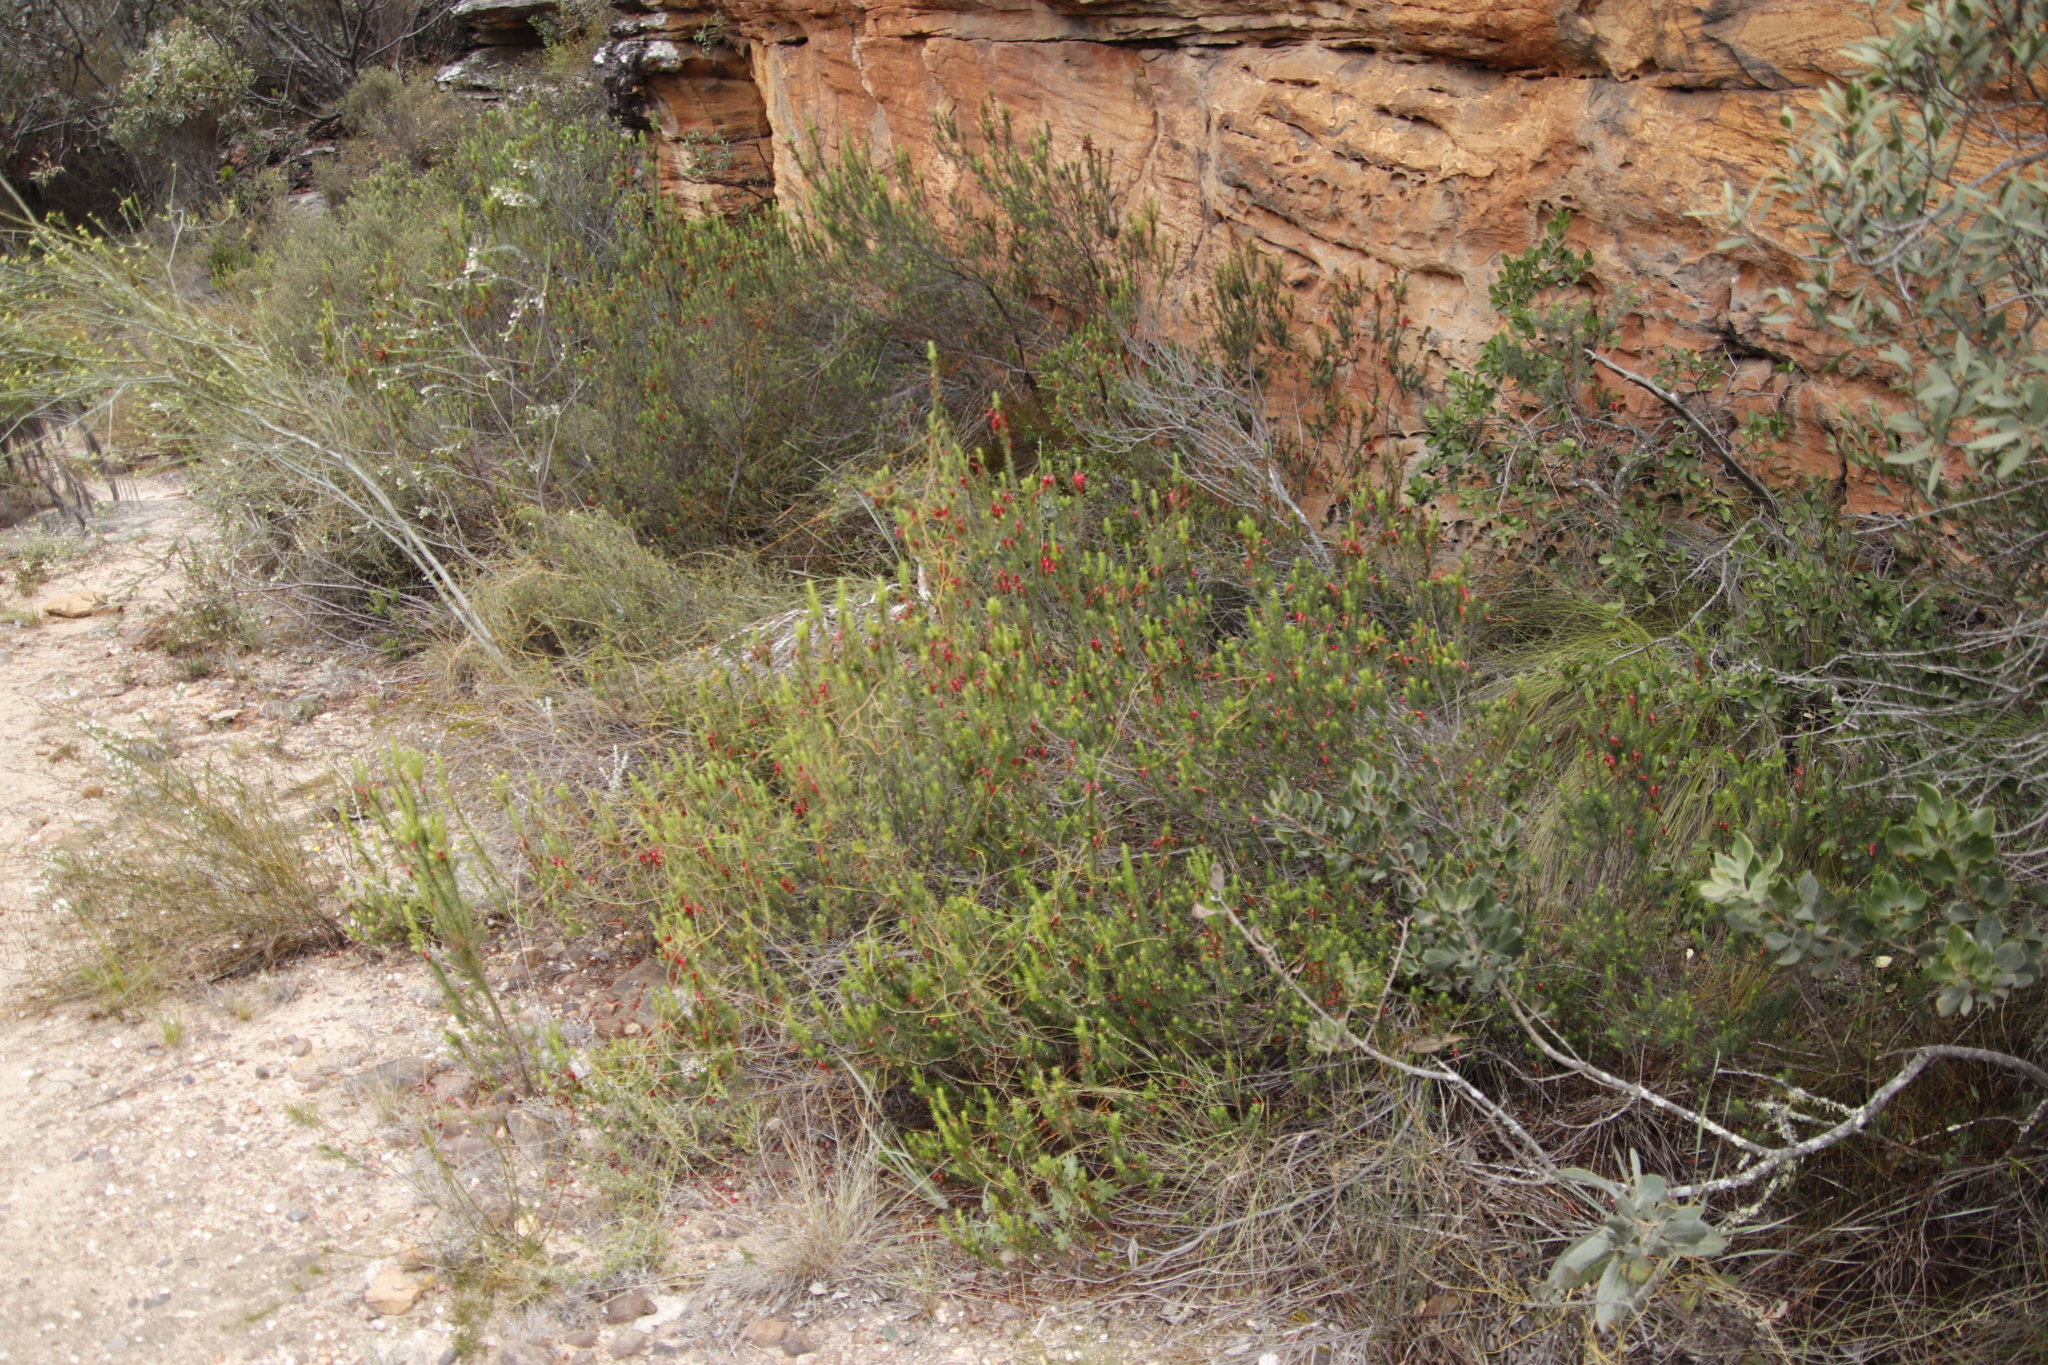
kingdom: Plantae
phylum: Tracheophyta
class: Magnoliopsida
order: Ericales
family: Ericaceae
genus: Erica
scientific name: Erica plukenetii
